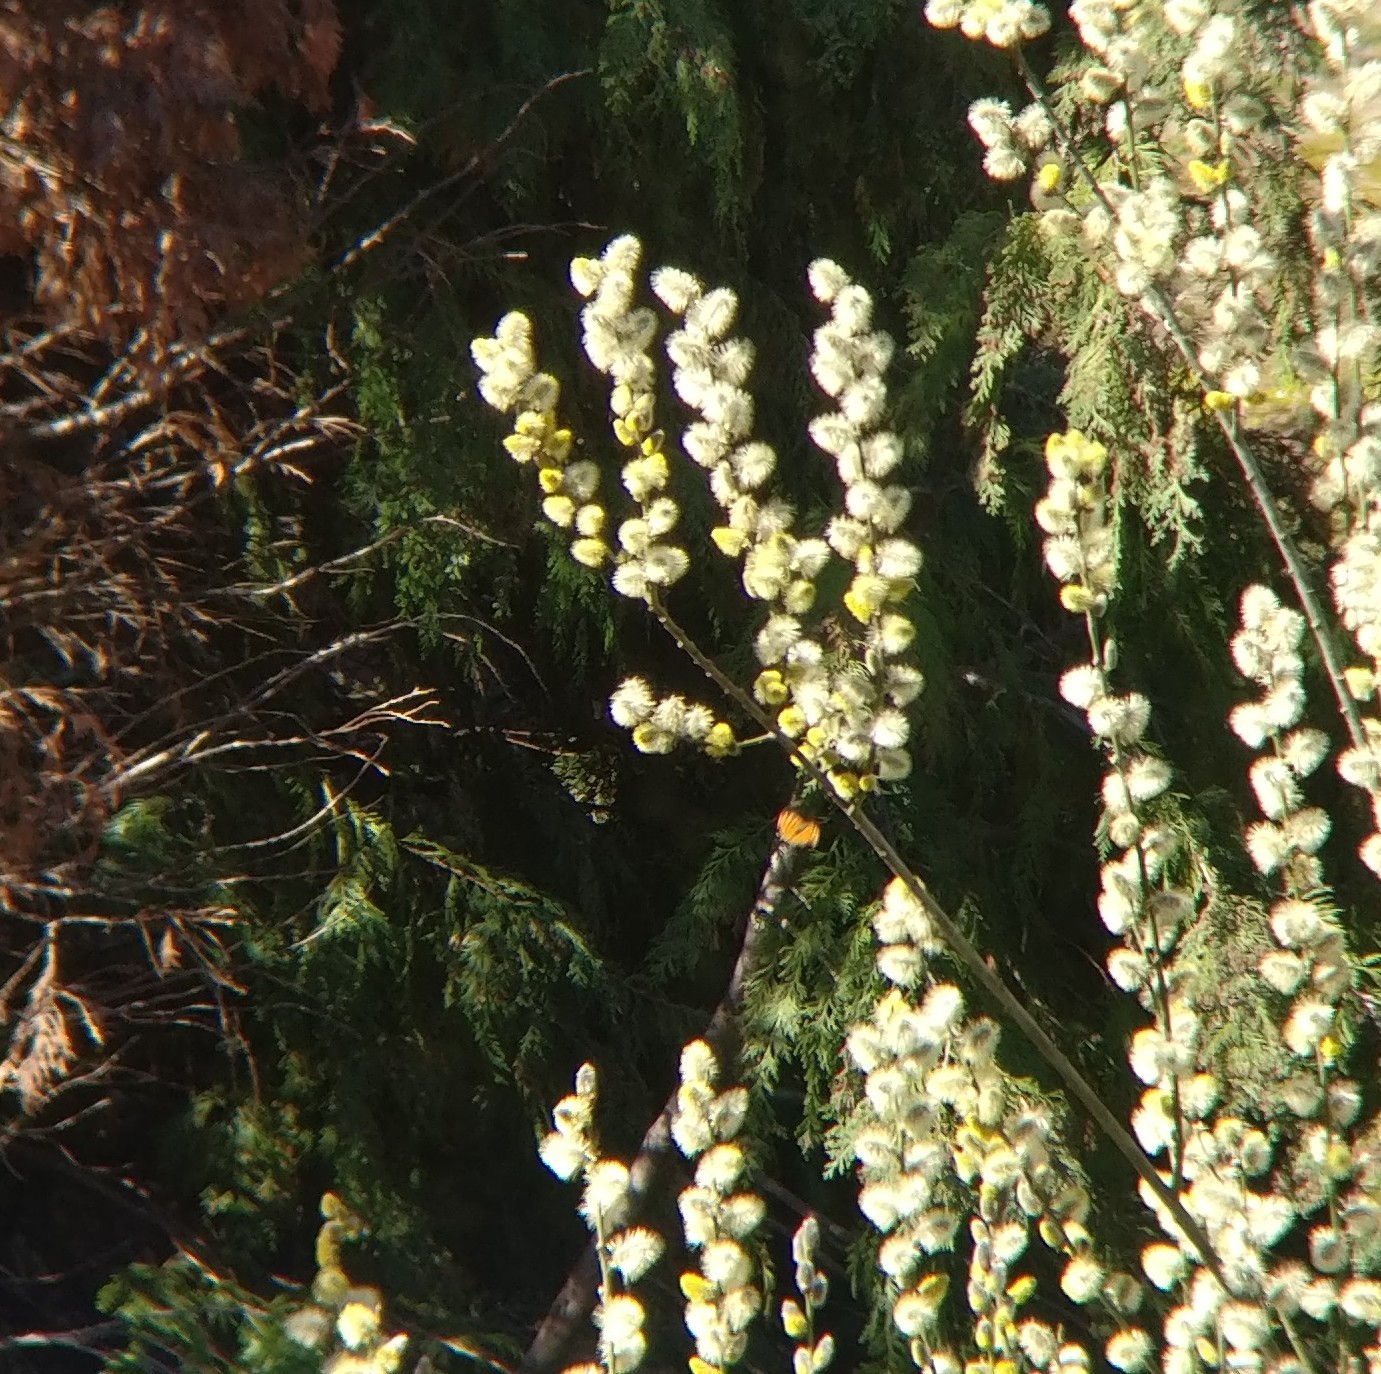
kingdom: Animalia
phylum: Arthropoda
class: Insecta
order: Lepidoptera
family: Nymphalidae
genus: Polygonia
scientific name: Polygonia c-album
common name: Comma
